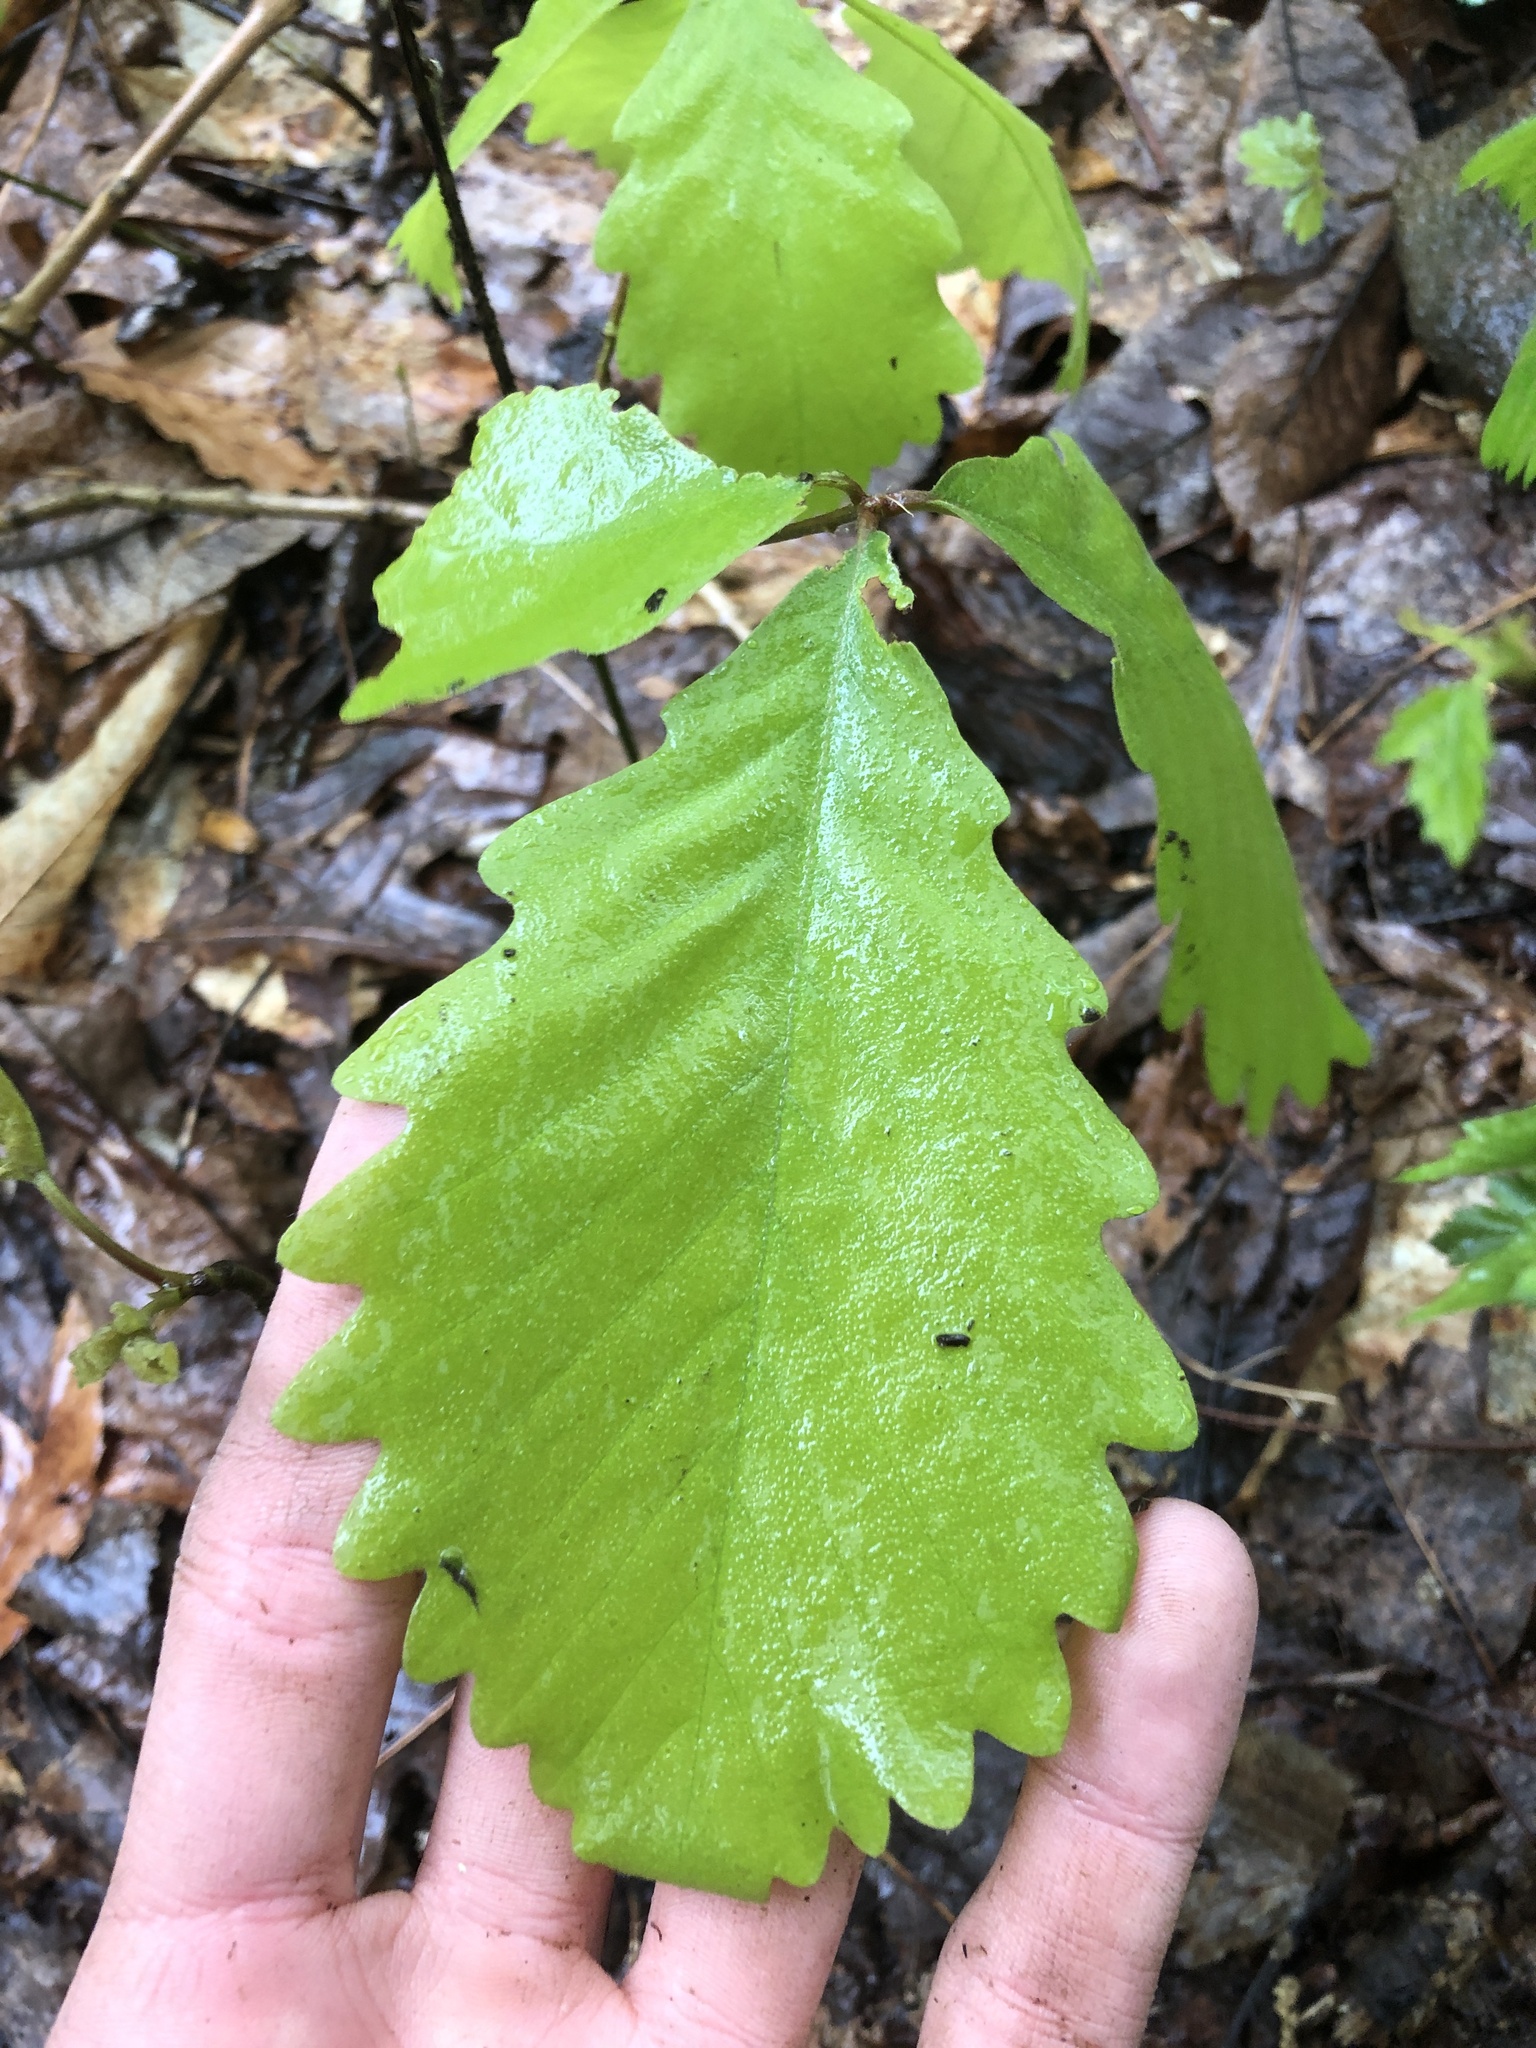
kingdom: Plantae
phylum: Tracheophyta
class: Magnoliopsida
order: Fagales
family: Fagaceae
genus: Quercus
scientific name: Quercus montana
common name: Chestnut oak
